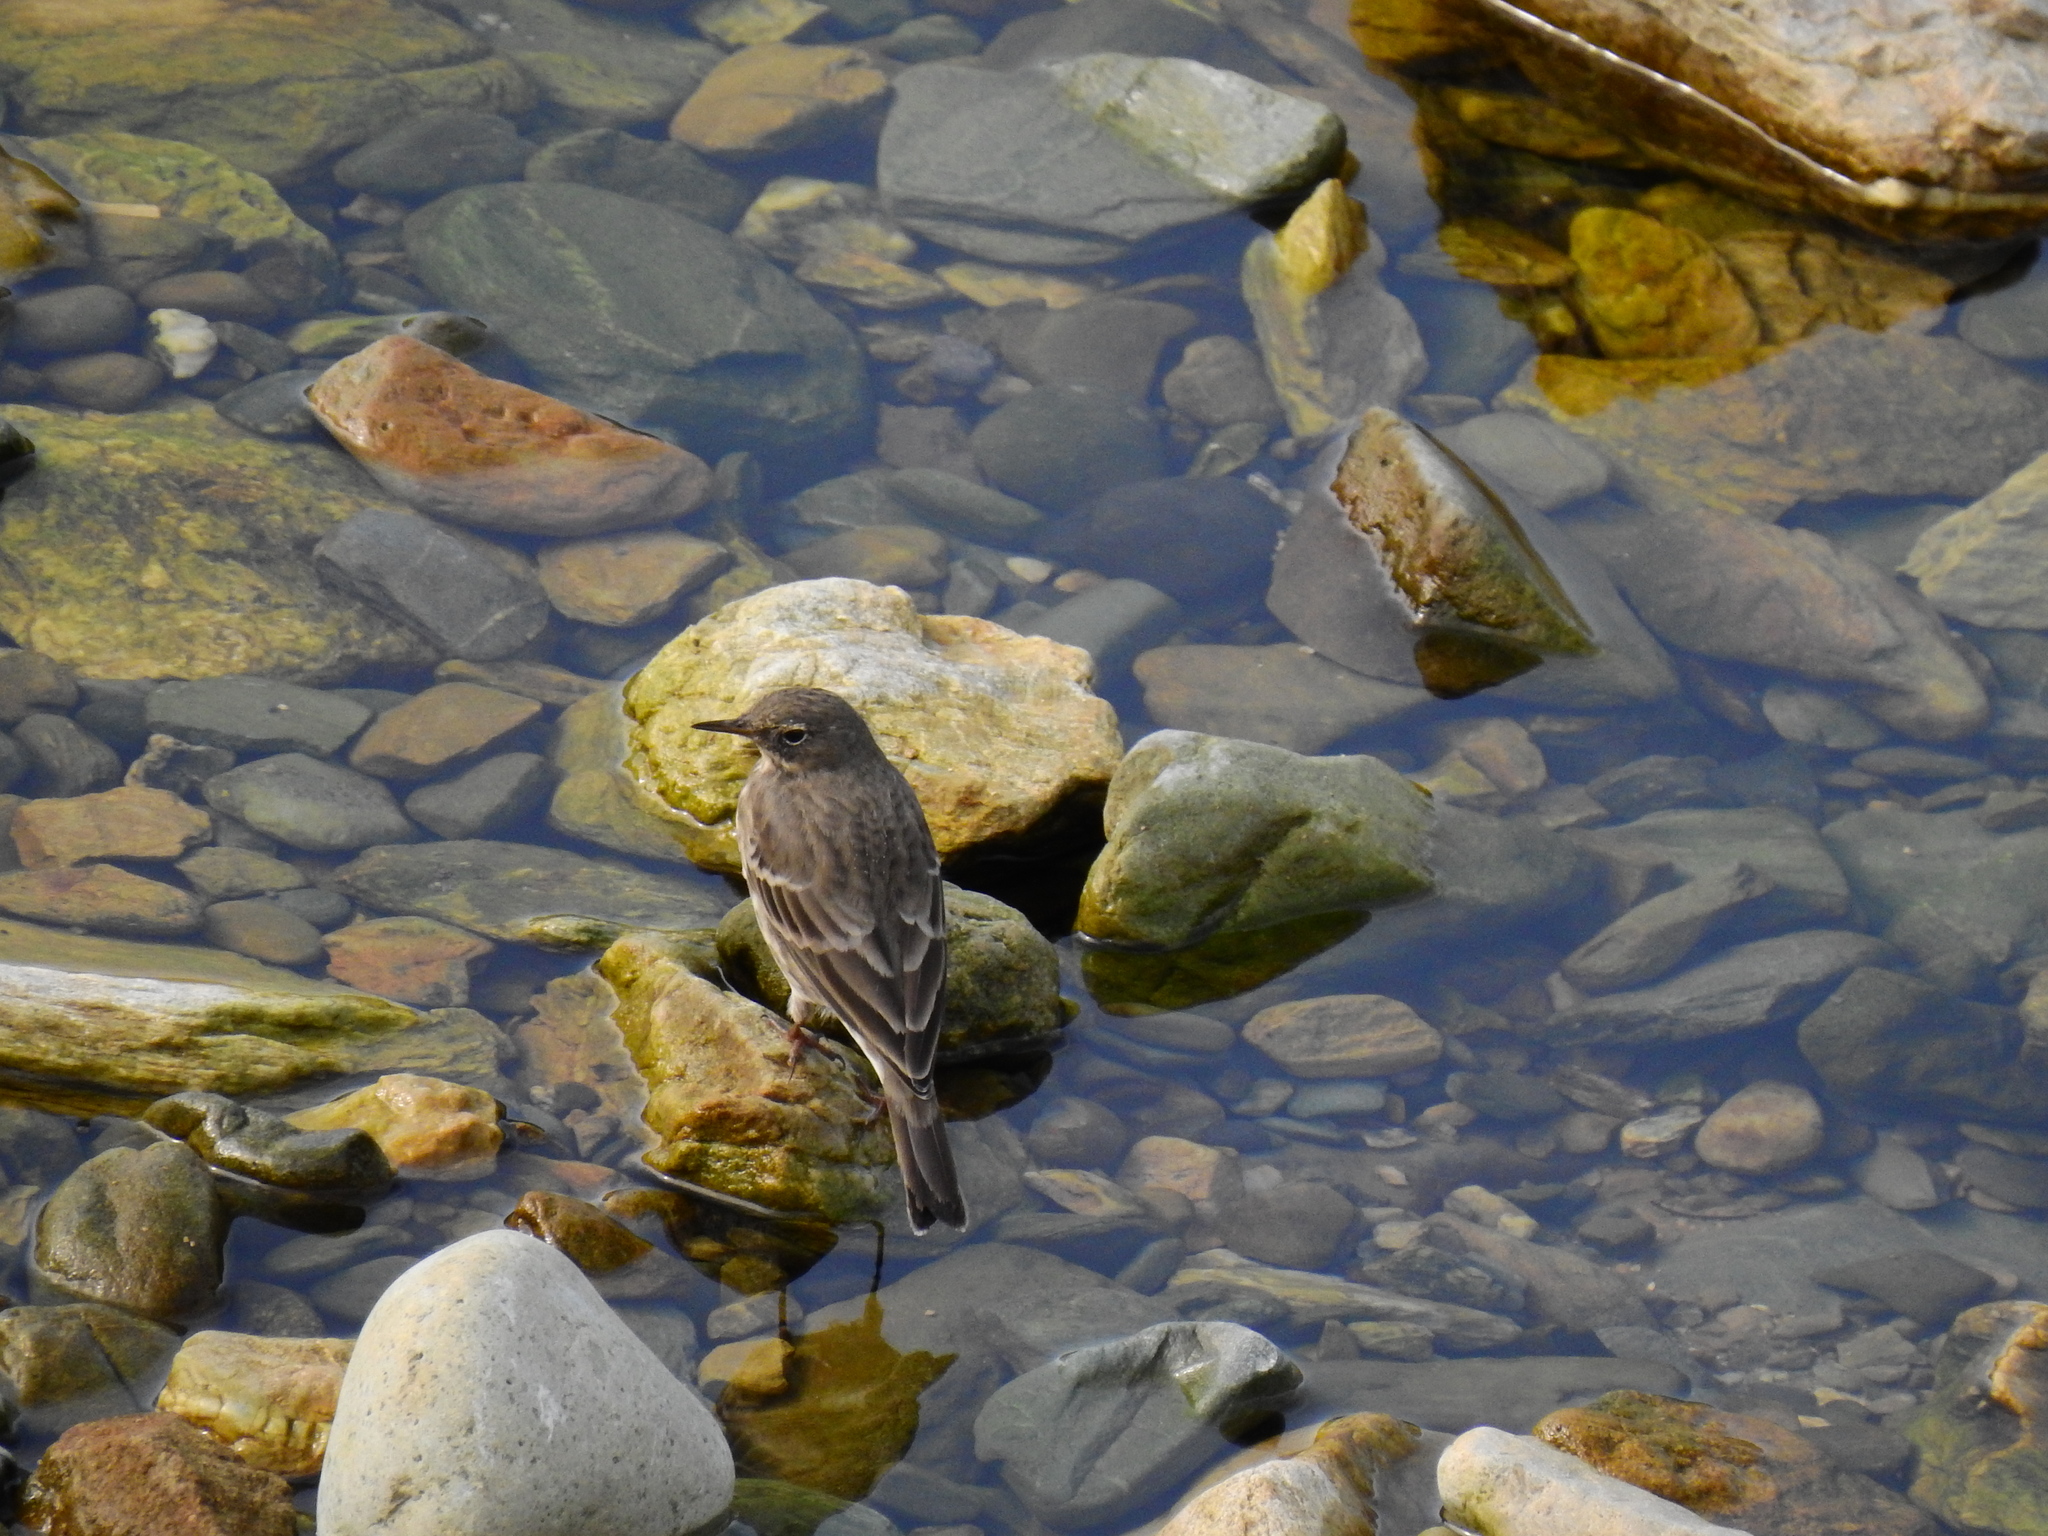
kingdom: Animalia
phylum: Chordata
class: Aves
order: Passeriformes
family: Motacillidae
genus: Anthus
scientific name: Anthus petrosus
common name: Eurasian rock pipit
